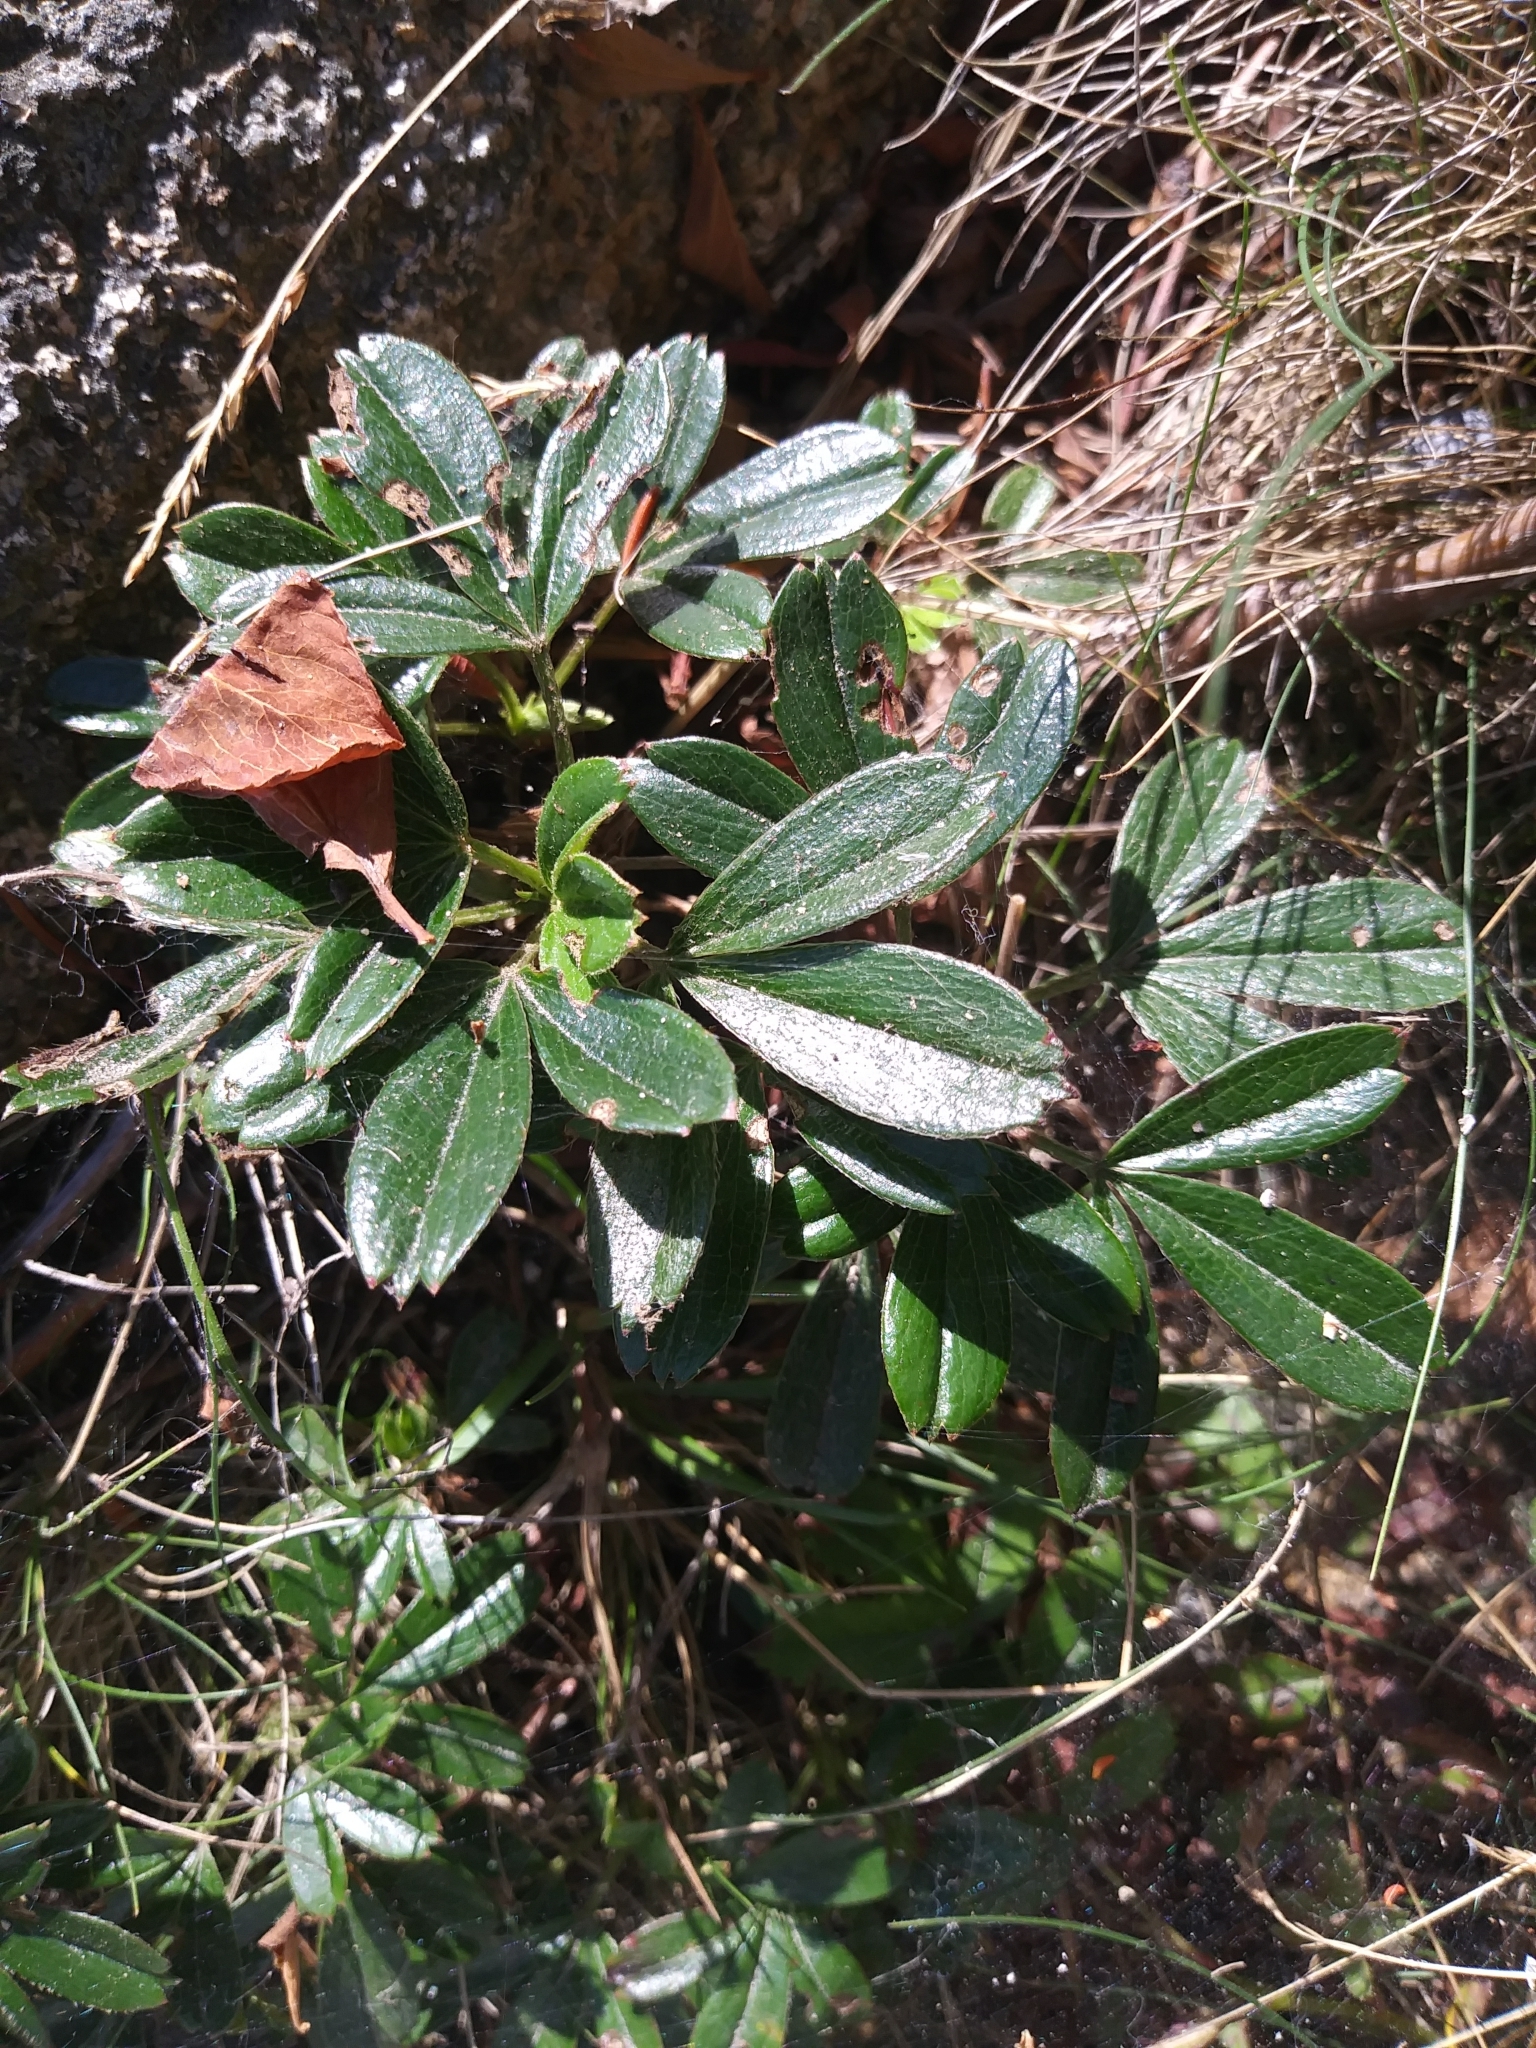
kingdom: Plantae
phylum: Tracheophyta
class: Magnoliopsida
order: Rosales
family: Rosaceae
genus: Sibbaldia
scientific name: Sibbaldia tridentata
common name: Three-toothed cinquefoil
